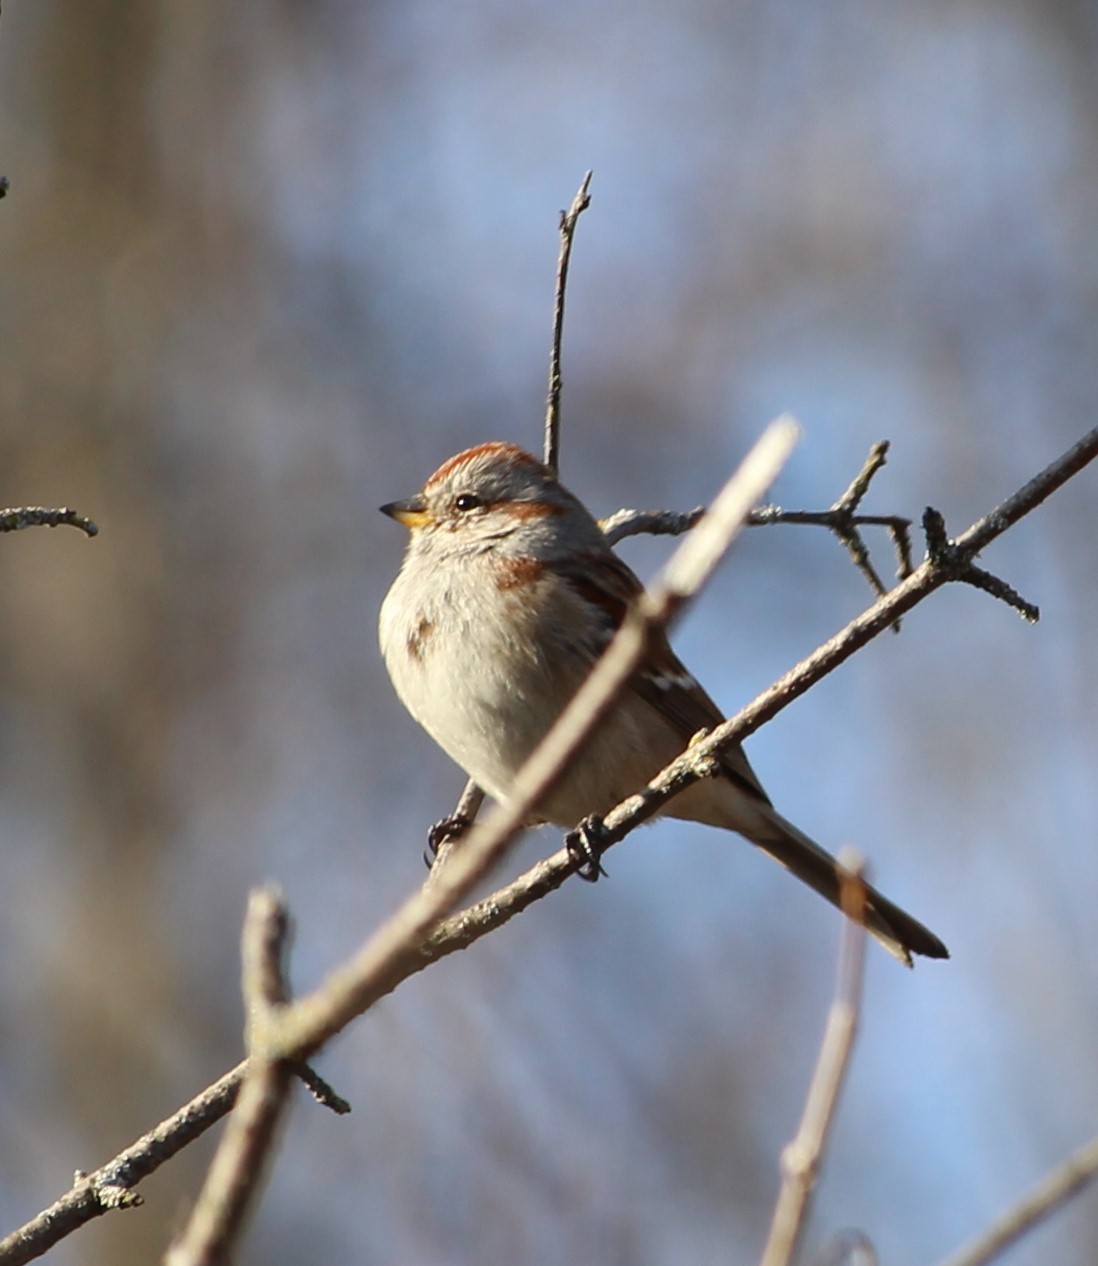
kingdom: Animalia
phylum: Chordata
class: Aves
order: Passeriformes
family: Passerellidae
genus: Spizelloides
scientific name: Spizelloides arborea
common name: American tree sparrow
